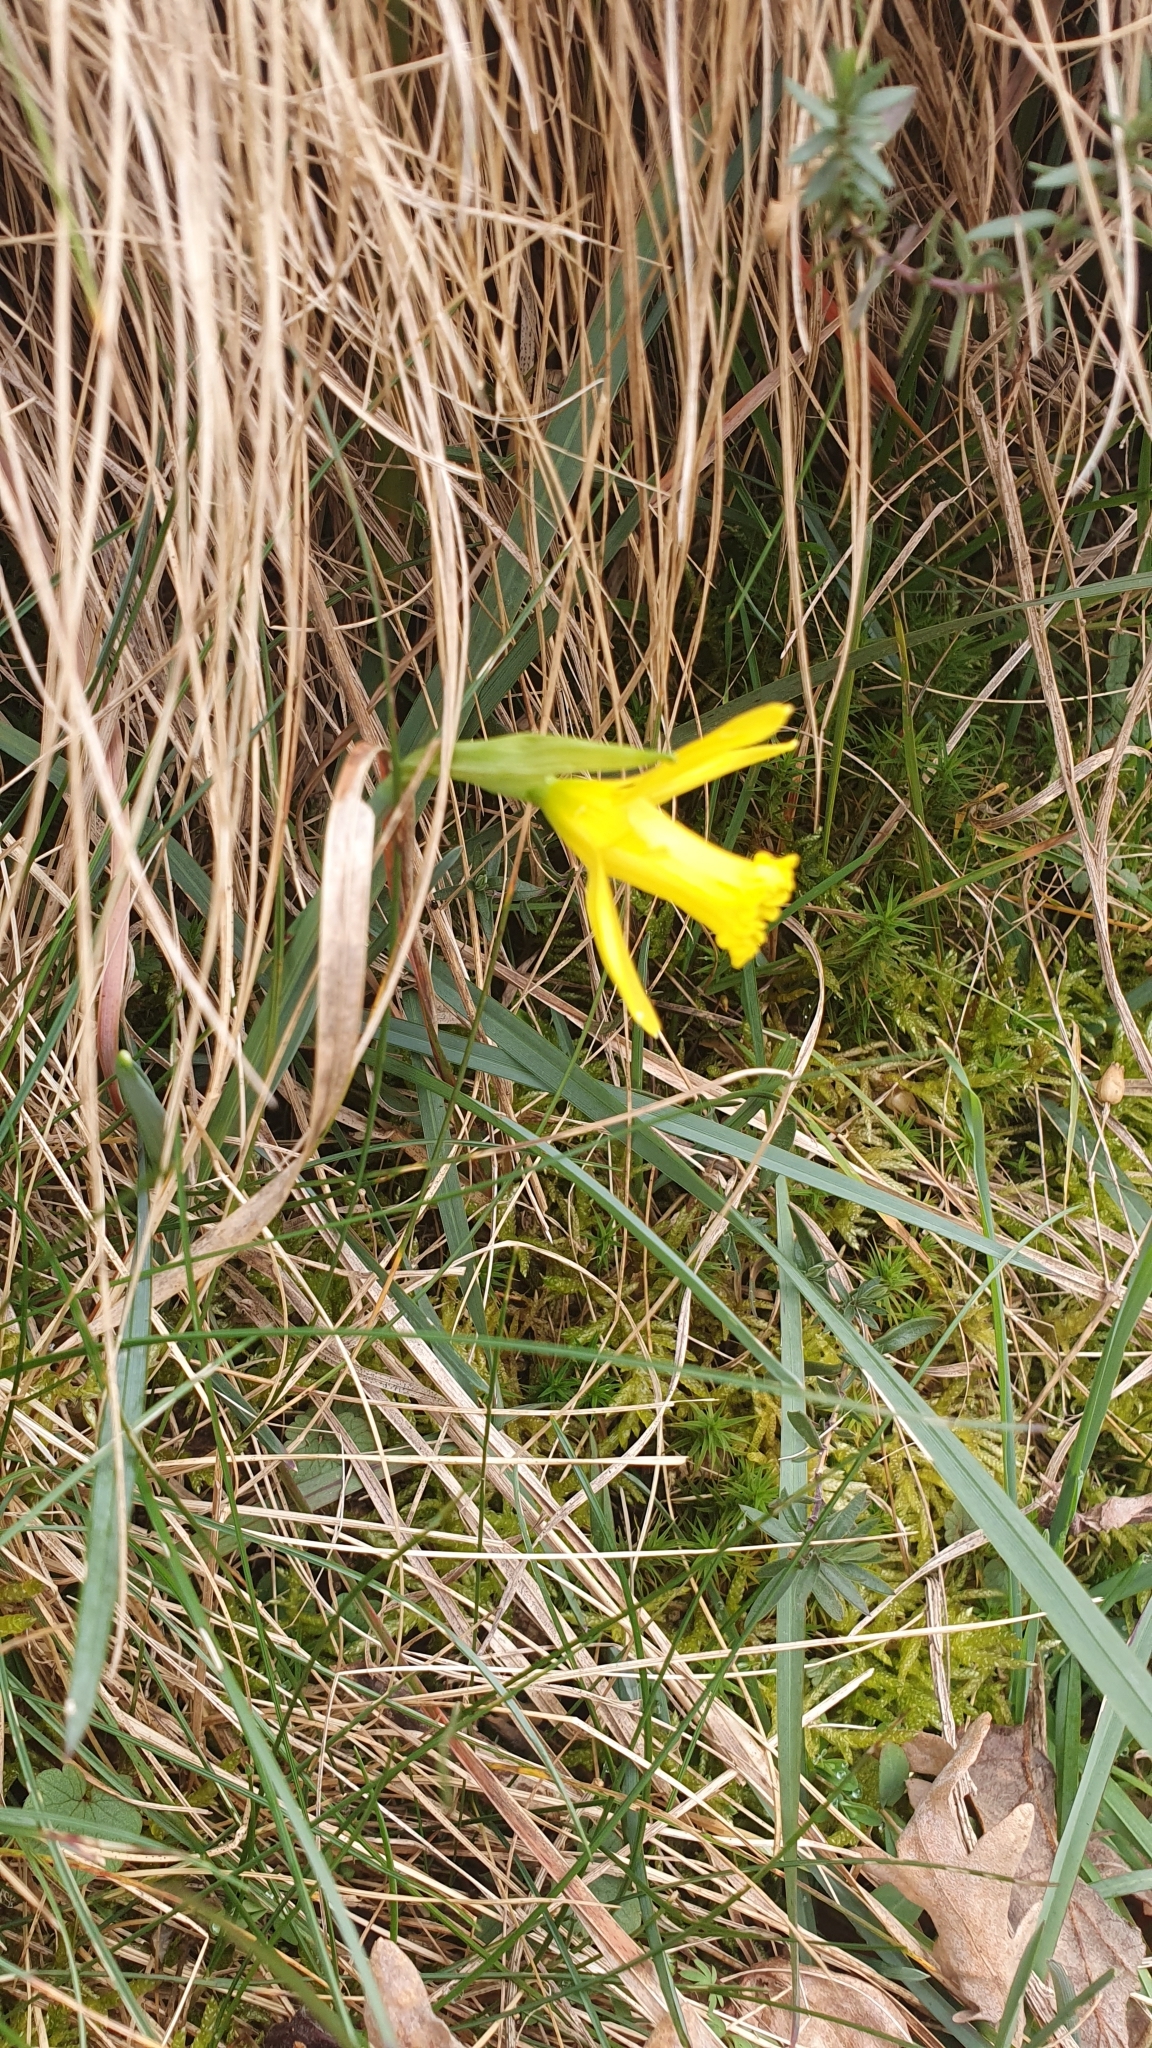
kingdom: Plantae
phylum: Tracheophyta
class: Liliopsida
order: Asparagales
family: Amaryllidaceae
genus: Narcissus
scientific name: Narcissus cuneiflorus
